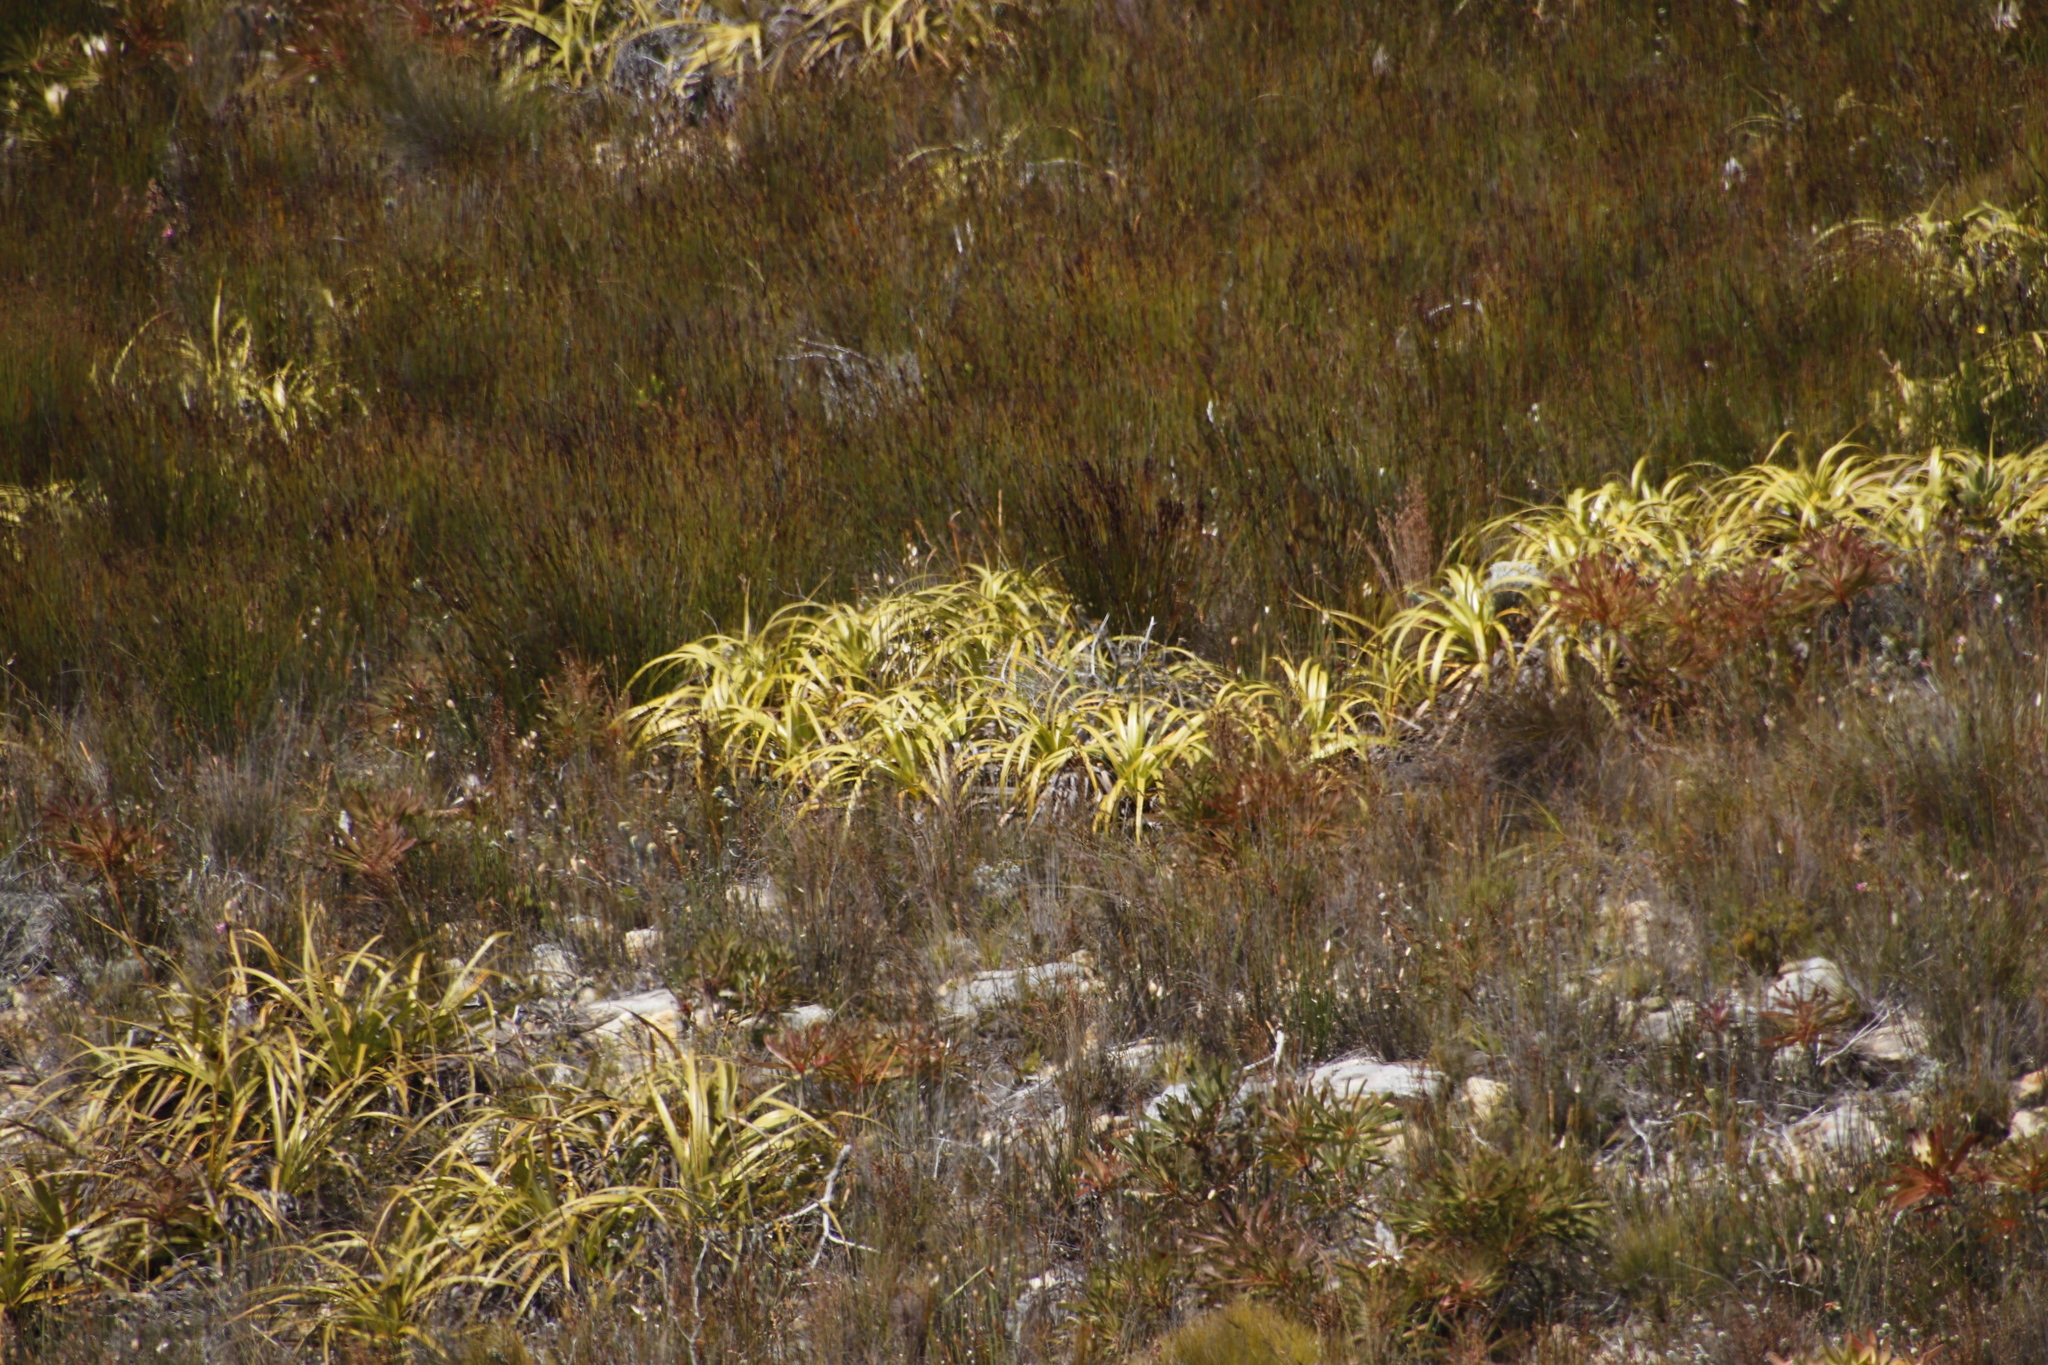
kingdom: Plantae
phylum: Tracheophyta
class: Liliopsida
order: Poales
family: Cyperaceae
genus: Tetraria
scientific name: Tetraria thermalis
